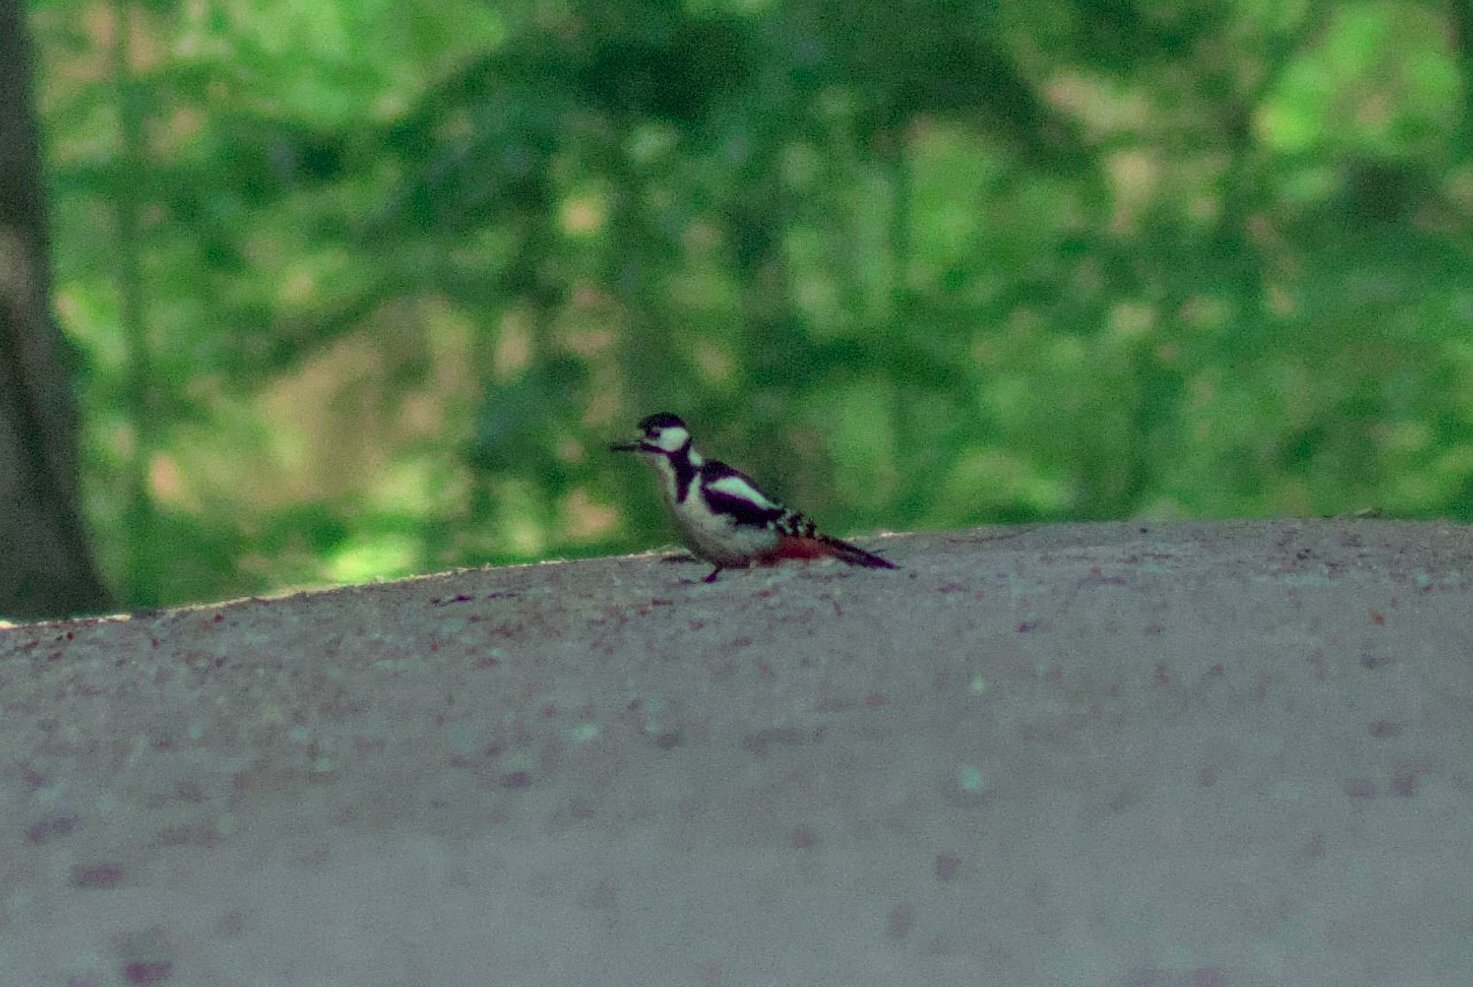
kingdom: Animalia
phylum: Chordata
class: Aves
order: Piciformes
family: Picidae
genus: Dendrocopos
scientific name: Dendrocopos major
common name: Great spotted woodpecker
